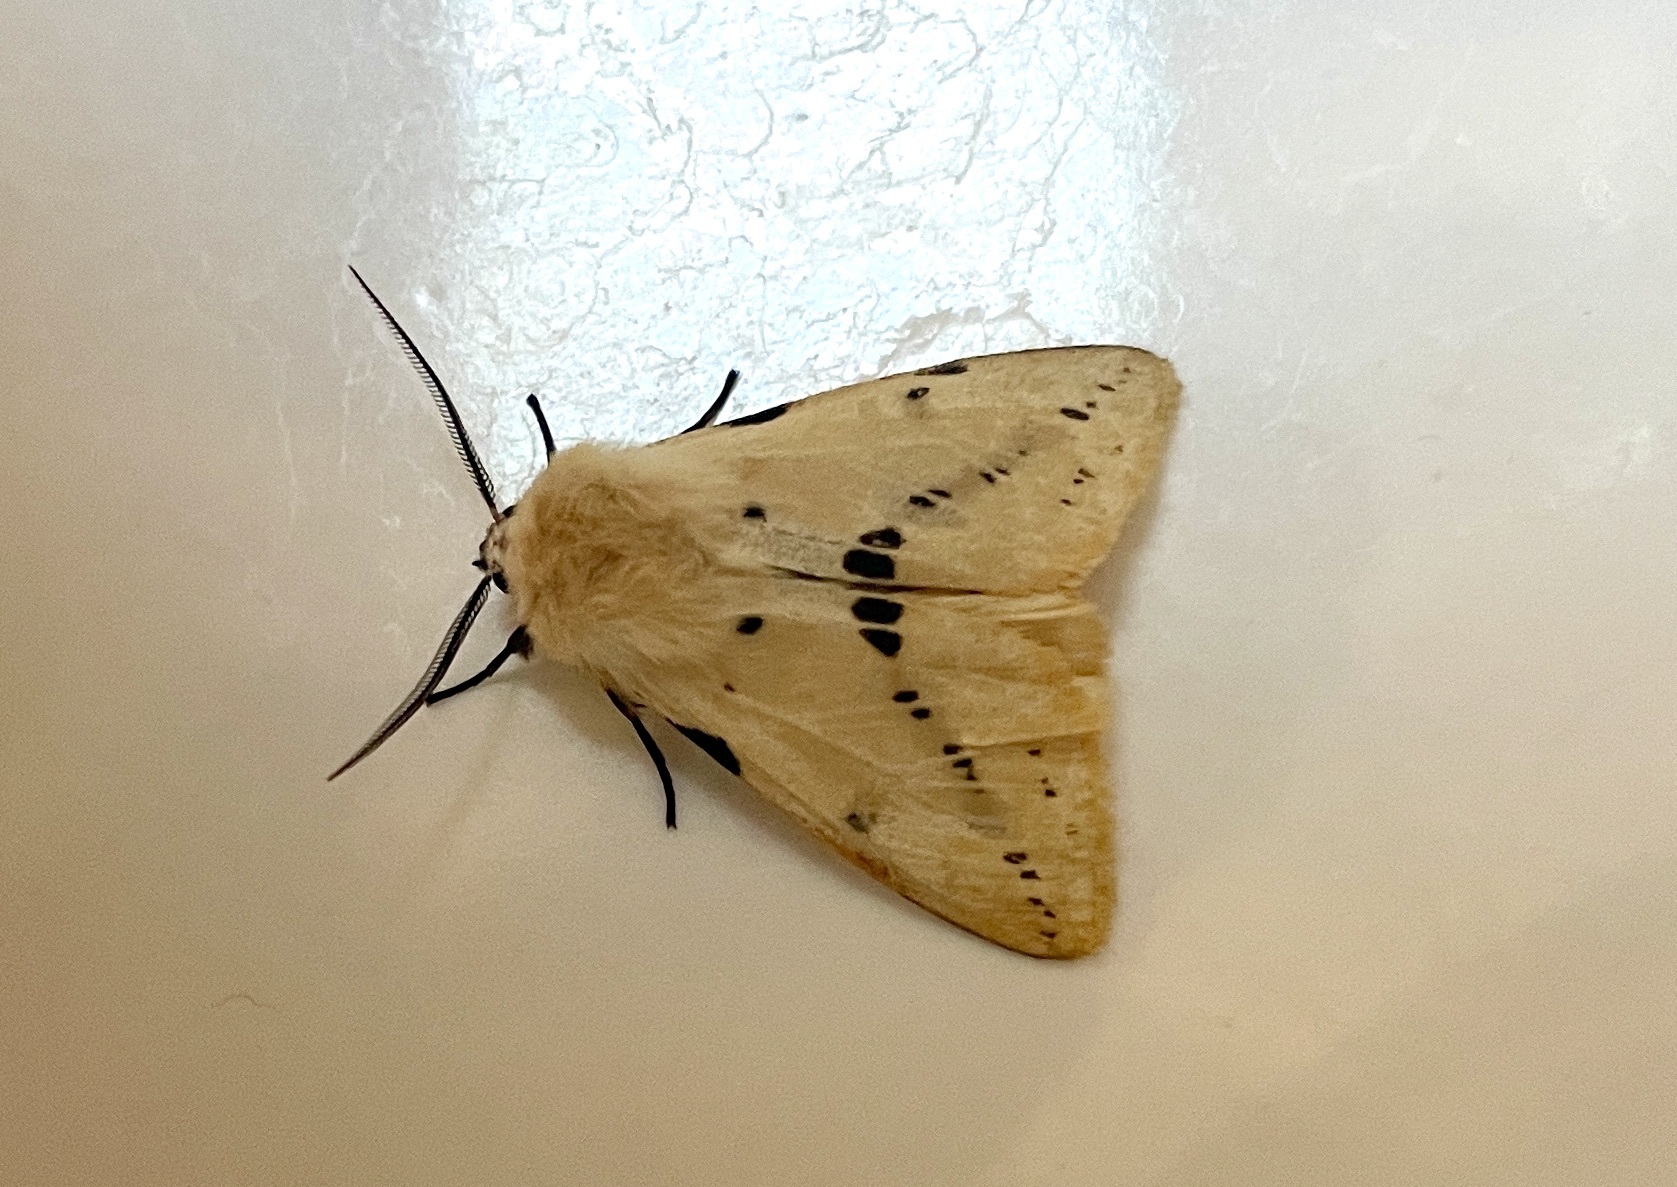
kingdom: Animalia
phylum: Arthropoda
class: Insecta
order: Lepidoptera
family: Erebidae
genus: Spilarctia
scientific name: Spilarctia lutea
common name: Buff ermine
